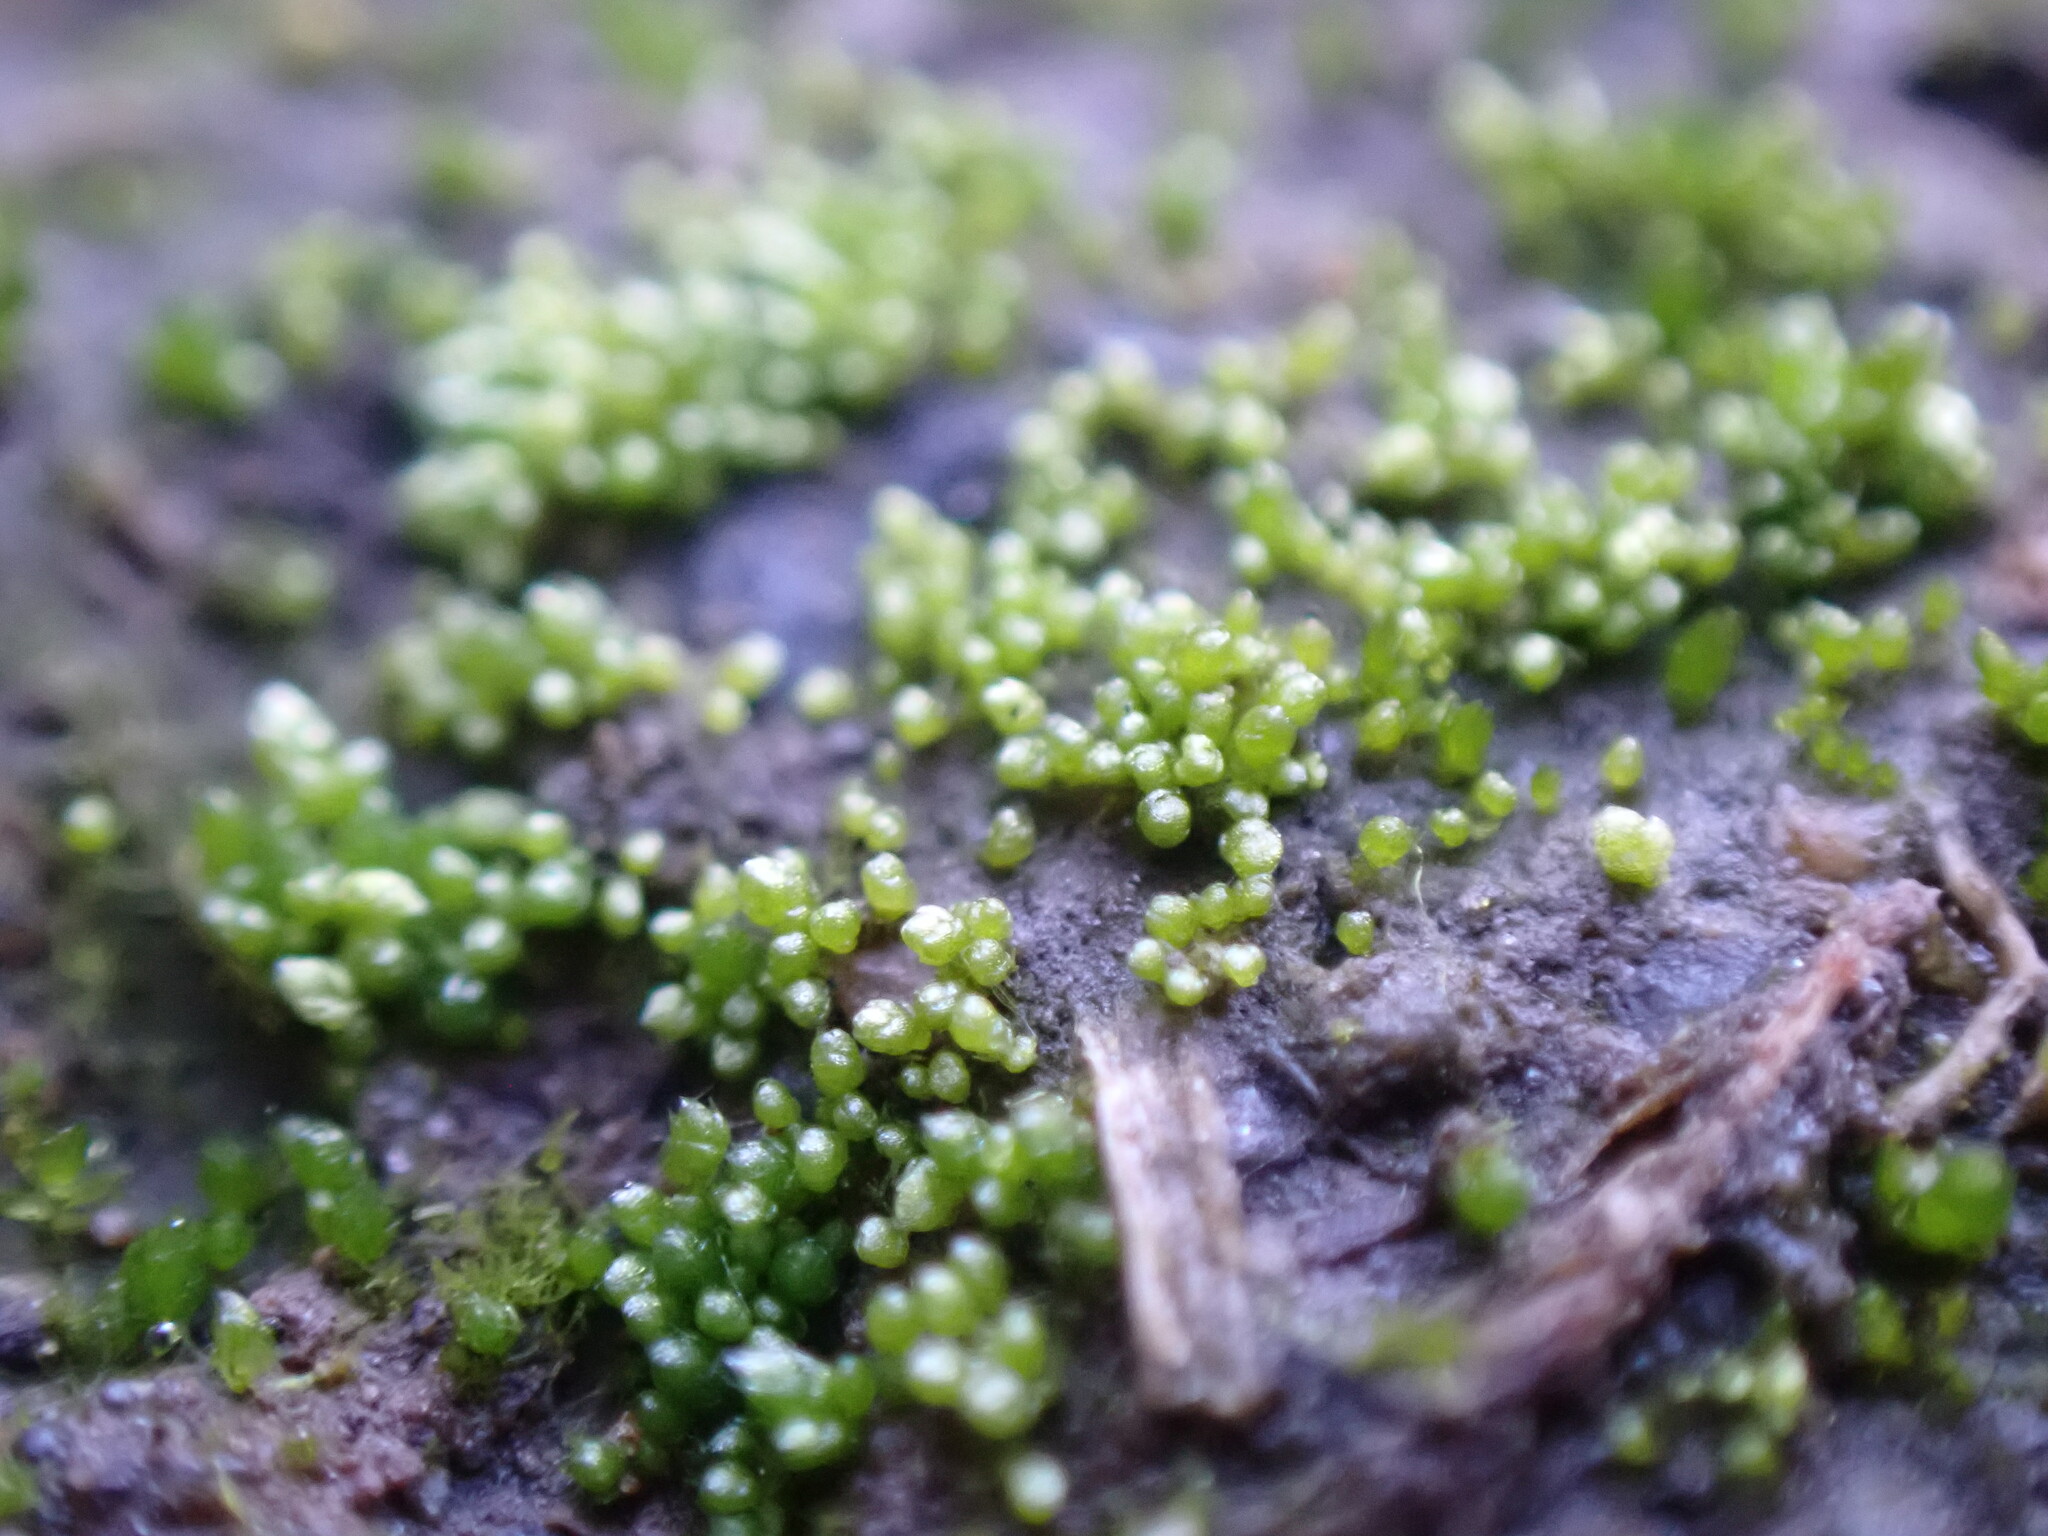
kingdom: Plantae
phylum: Bryophyta
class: Bryopsida
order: Bryales
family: Bryaceae
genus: Bryum
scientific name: Bryum argenteum
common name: Silver-moss
